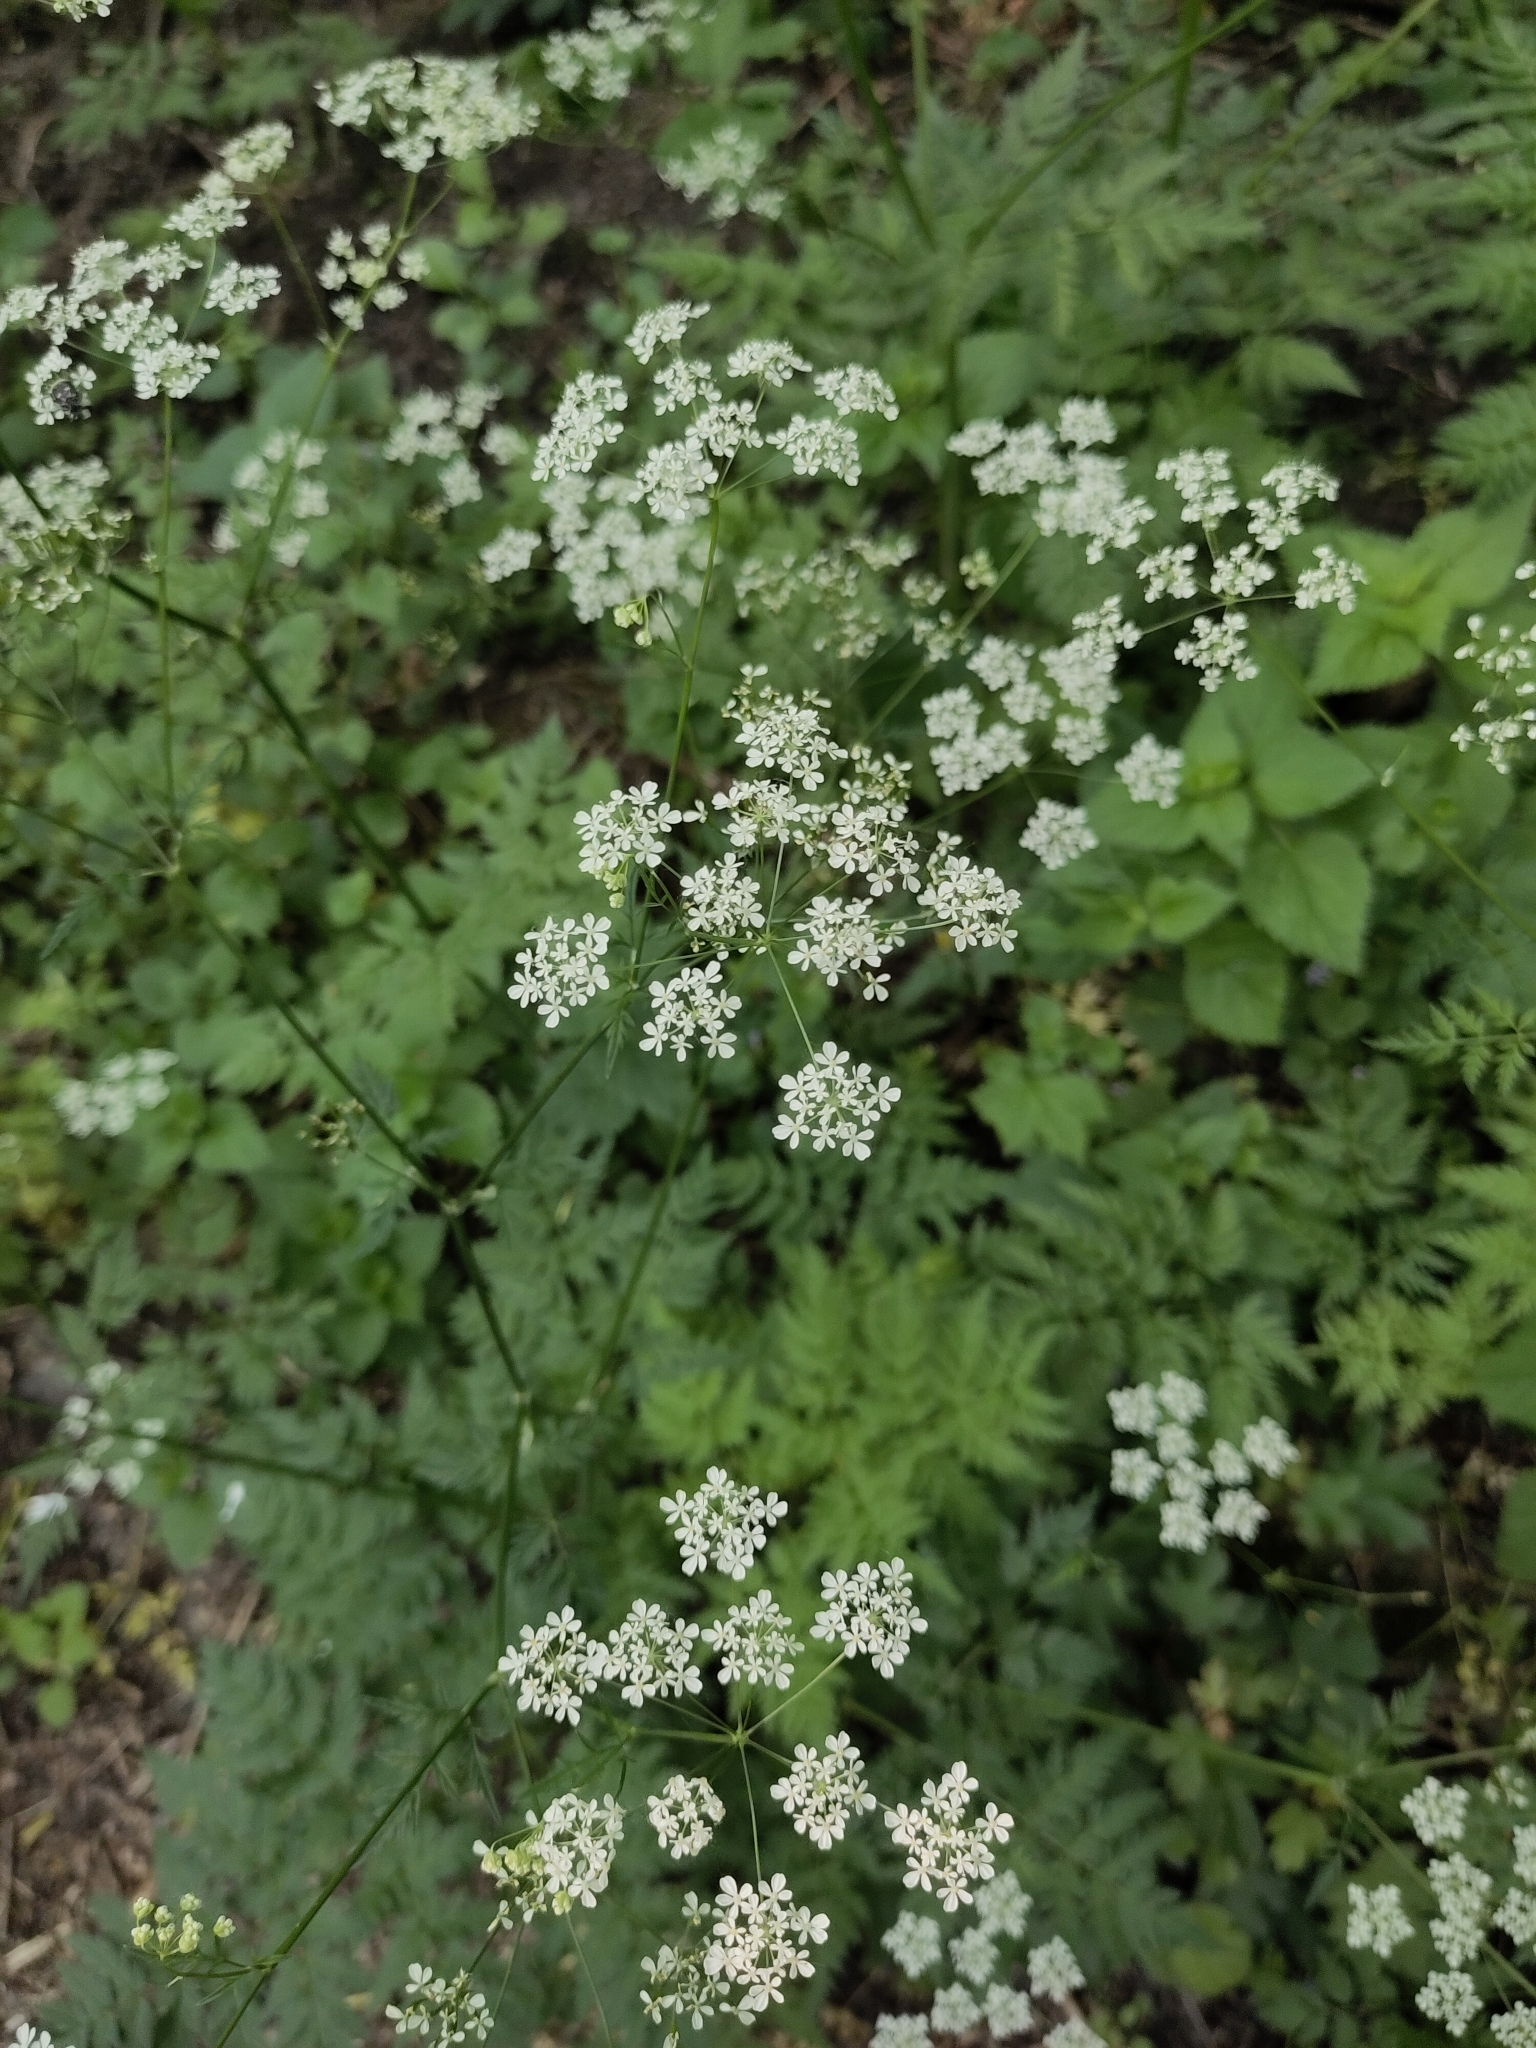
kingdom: Plantae
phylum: Tracheophyta
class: Magnoliopsida
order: Apiales
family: Apiaceae
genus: Anthriscus
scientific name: Anthriscus sylvestris
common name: Cow parsley
